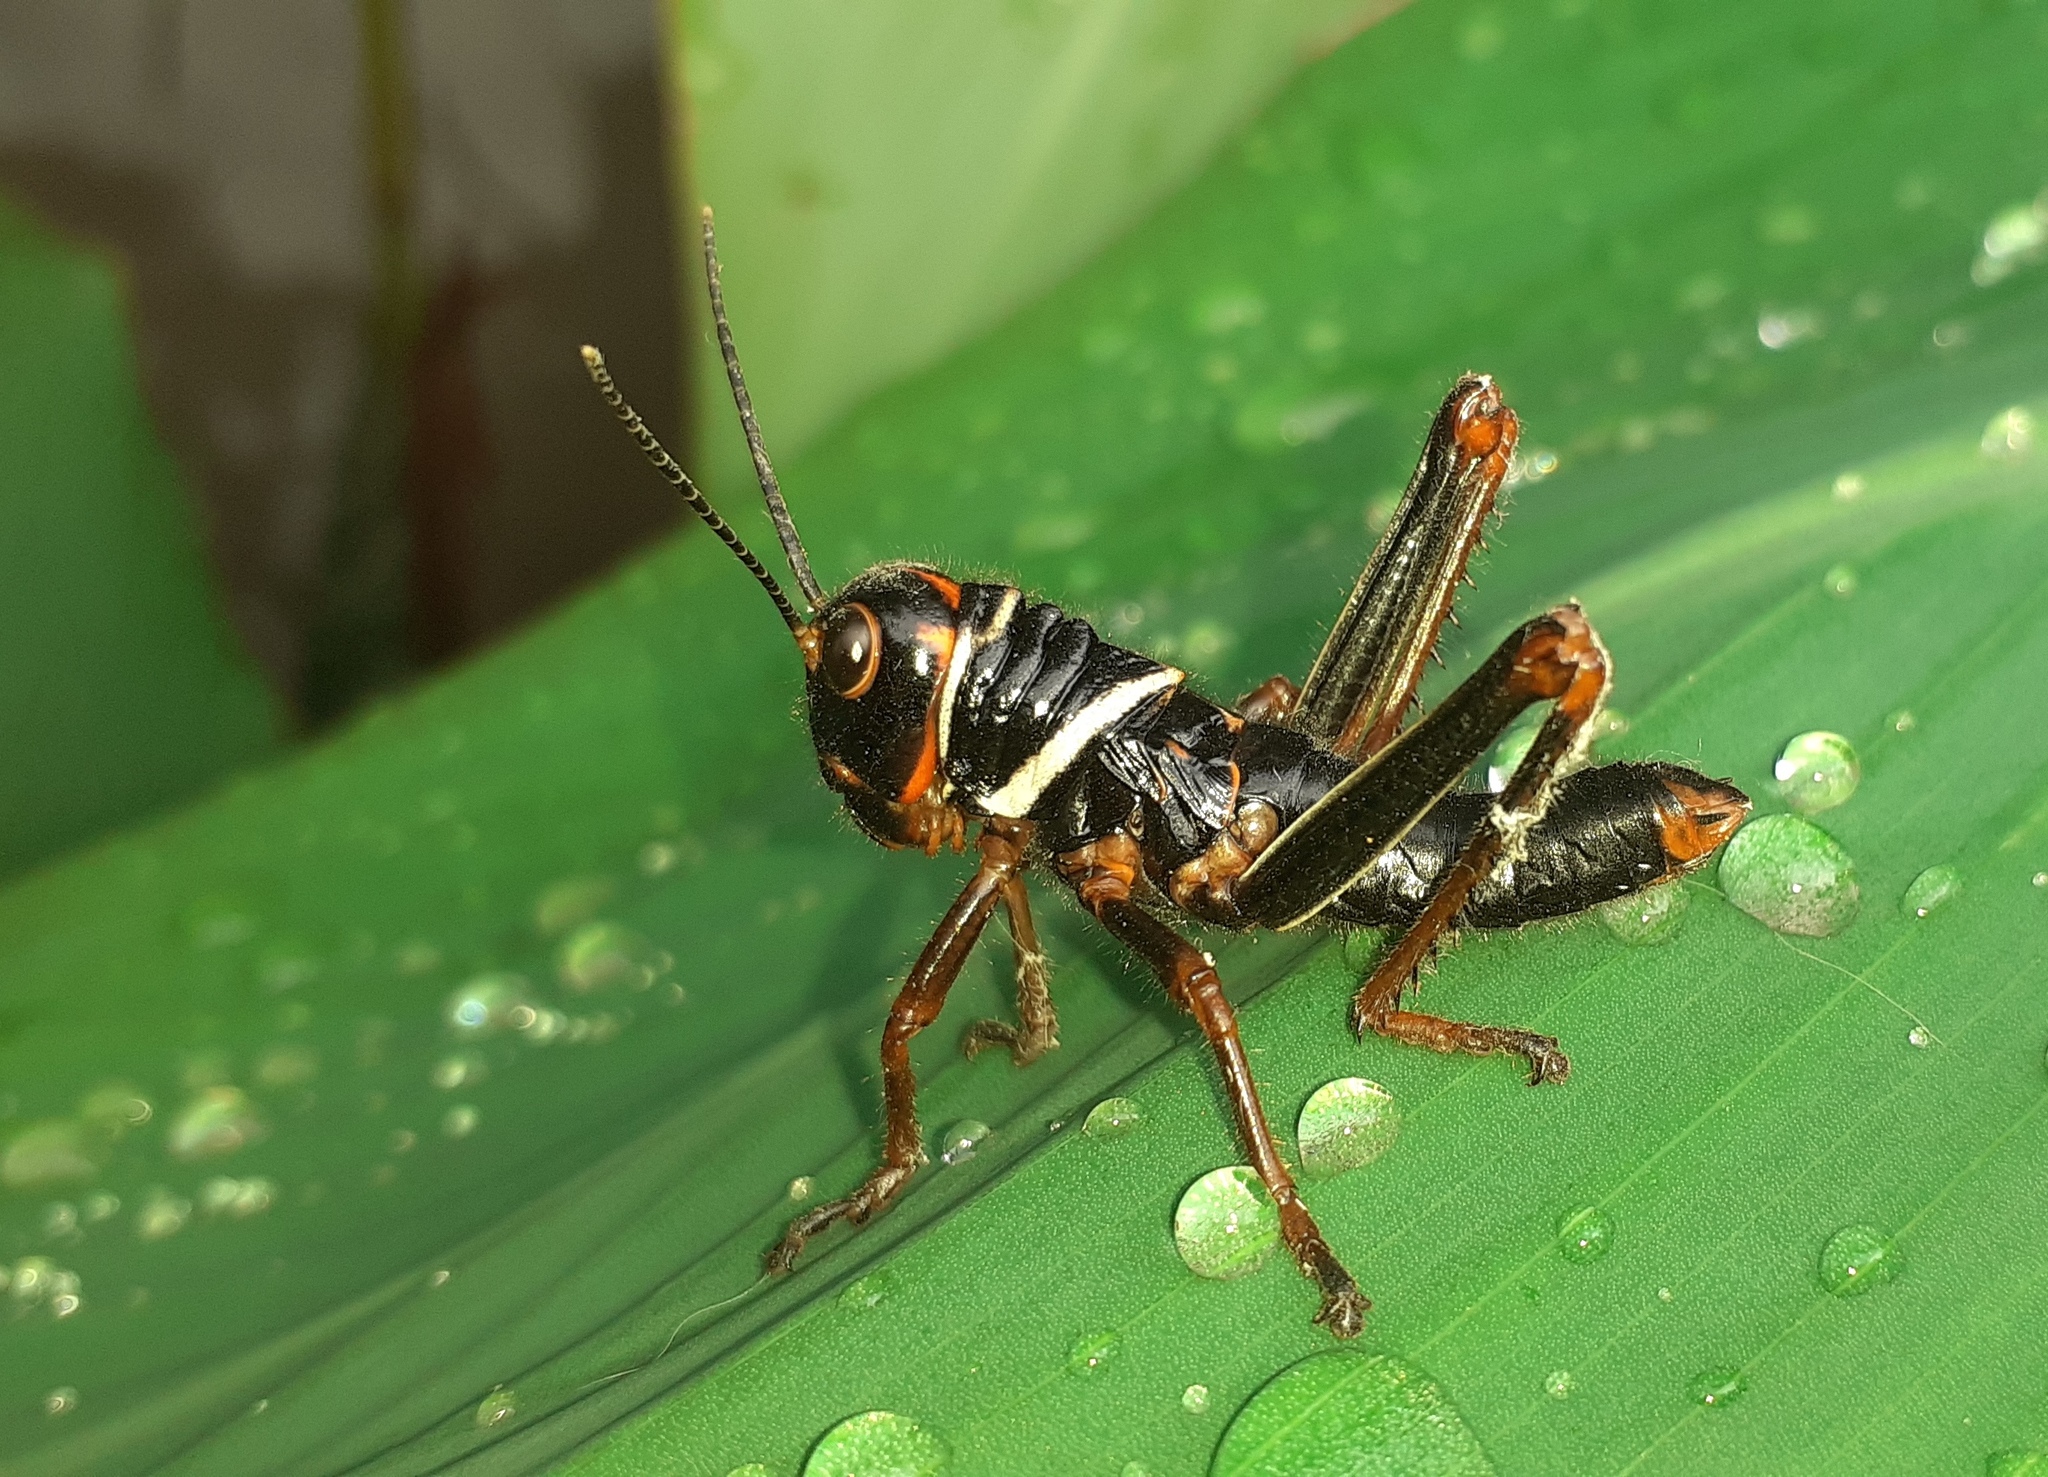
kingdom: Animalia
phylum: Arthropoda
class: Insecta
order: Orthoptera
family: Romaleidae
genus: Tropidacris
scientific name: Tropidacris collaris
